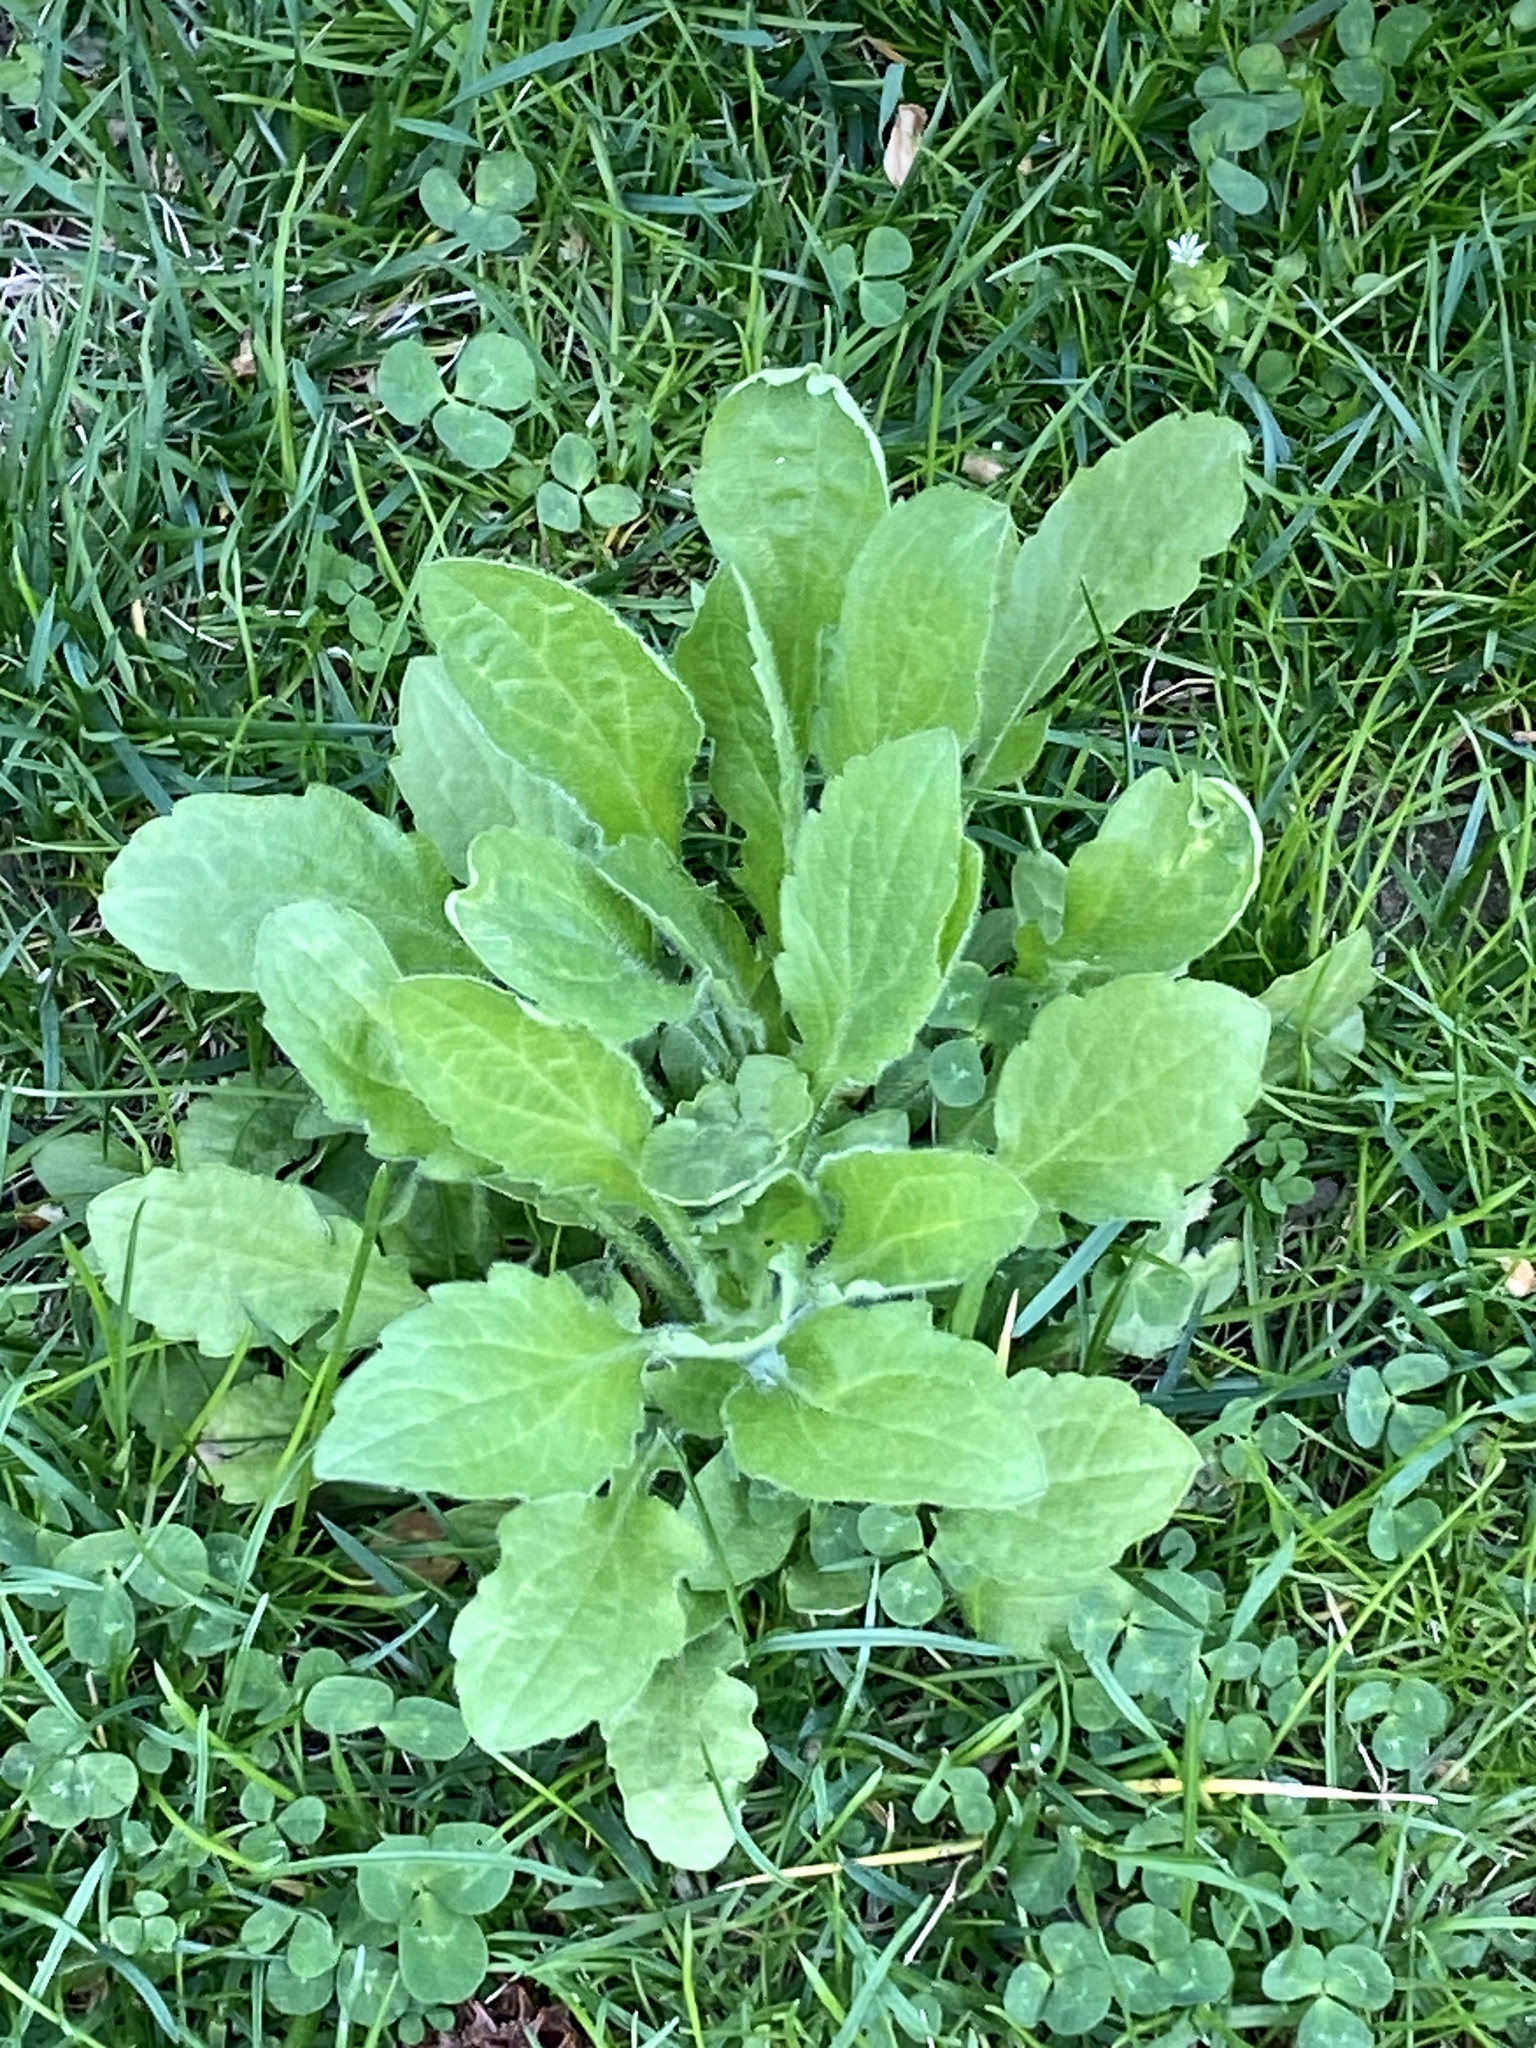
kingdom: Plantae
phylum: Tracheophyta
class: Magnoliopsida
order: Asterales
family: Asteraceae
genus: Erigeron
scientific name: Erigeron annuus
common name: Tall fleabane
